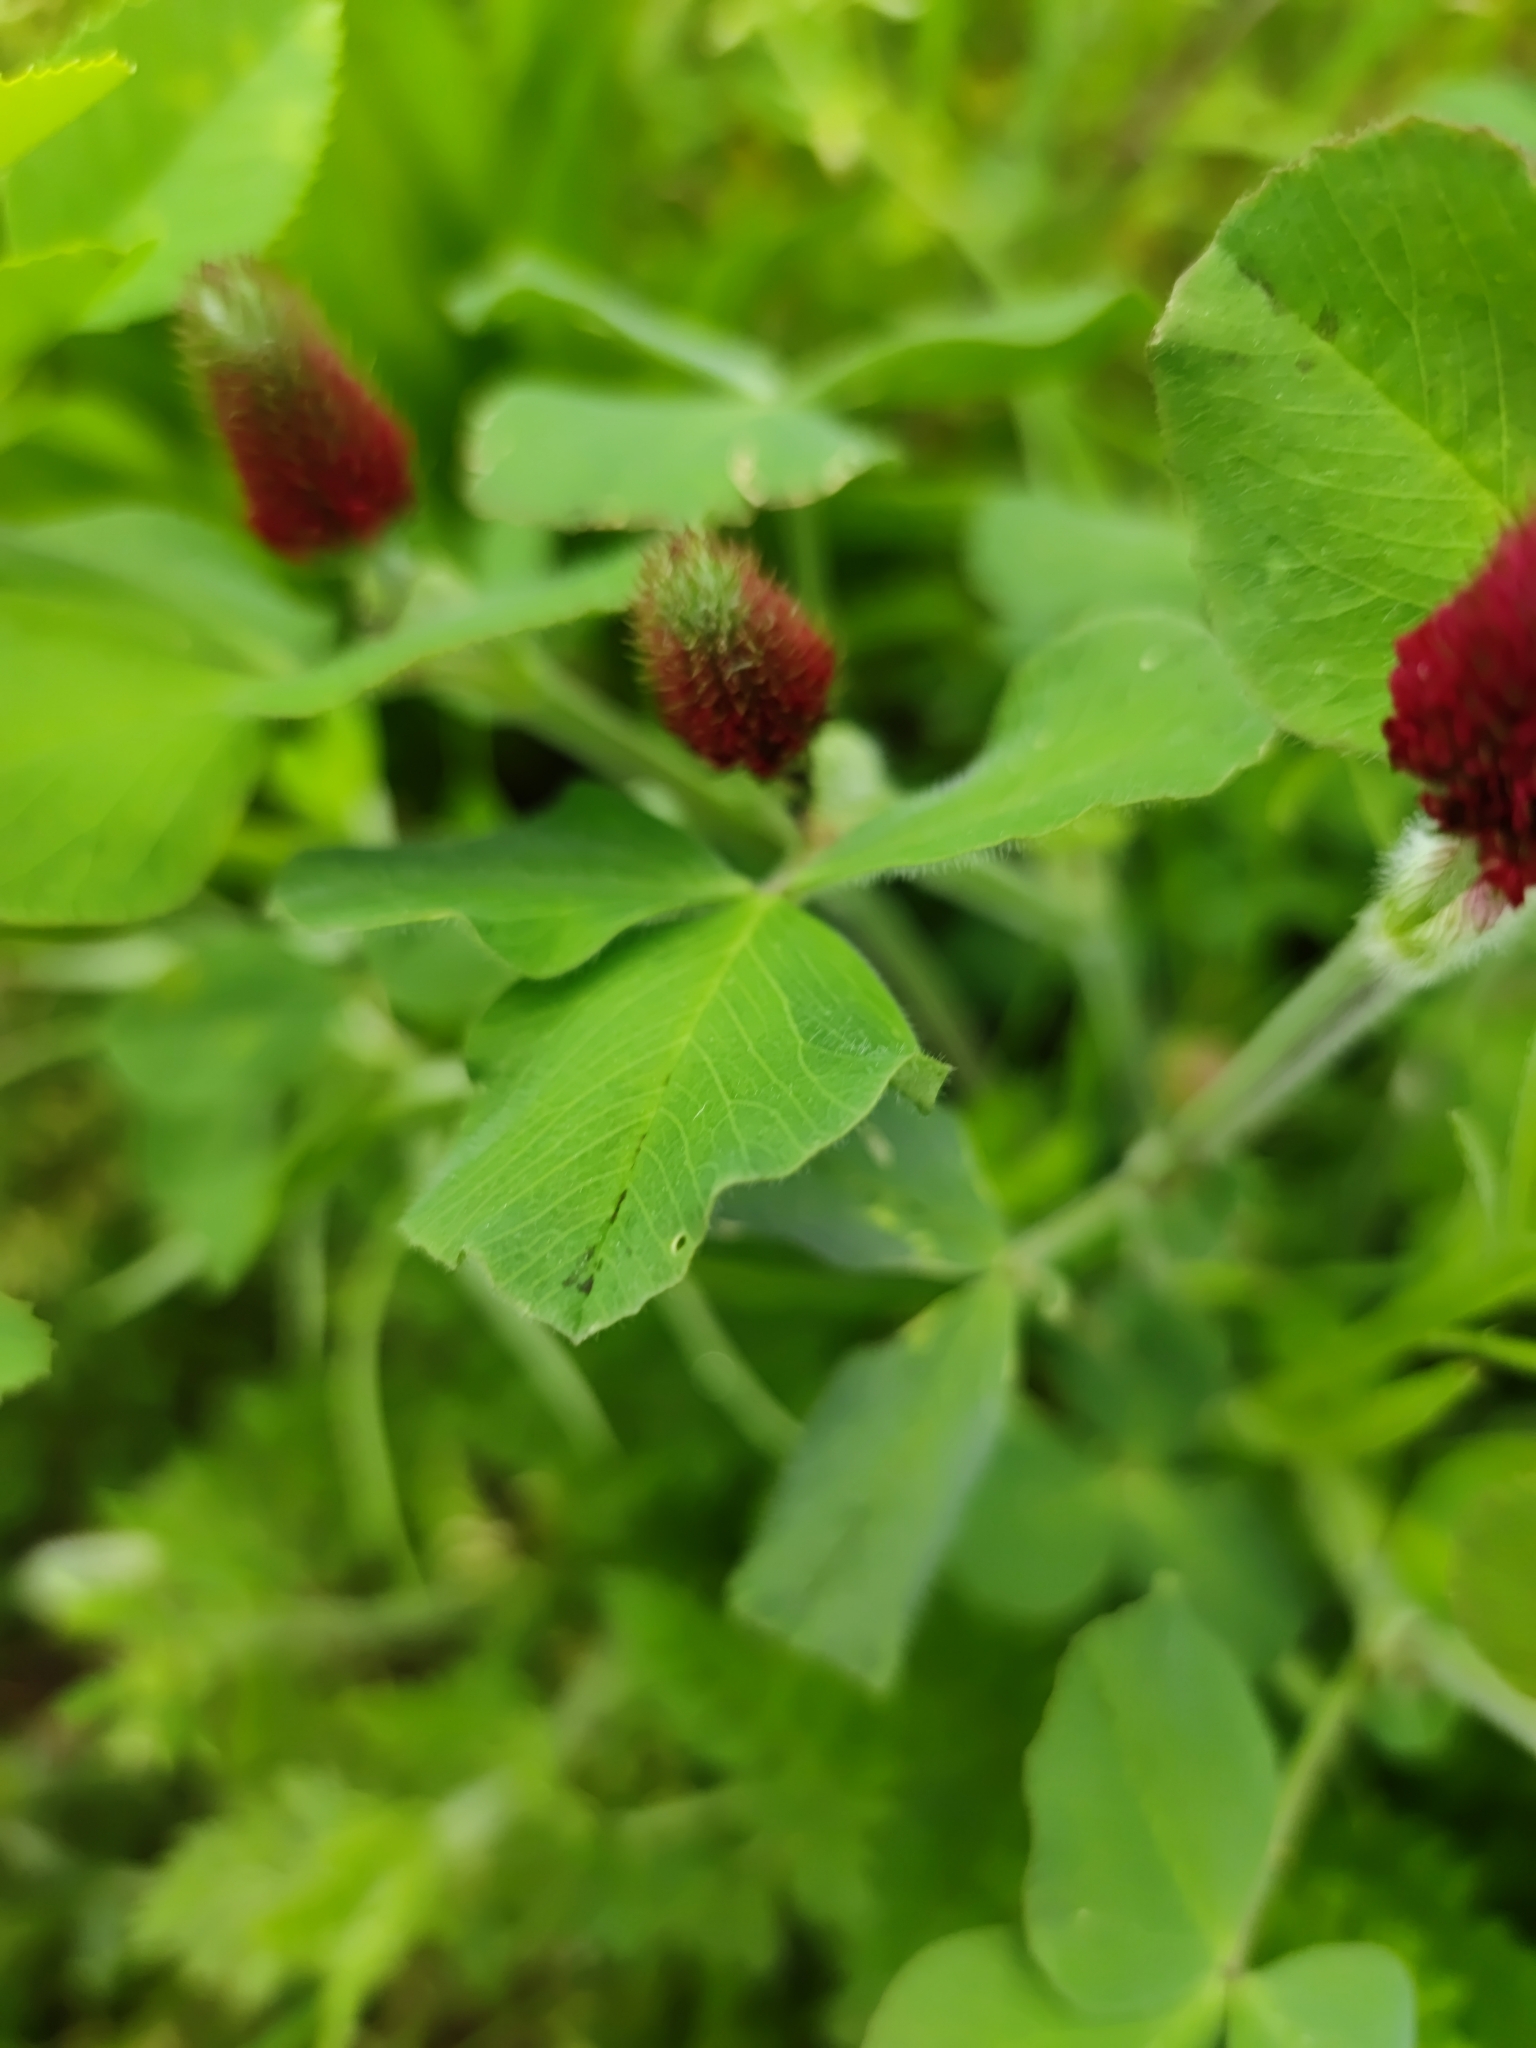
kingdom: Plantae
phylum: Tracheophyta
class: Magnoliopsida
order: Fabales
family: Fabaceae
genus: Trifolium
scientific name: Trifolium incarnatum
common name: Crimson clover
